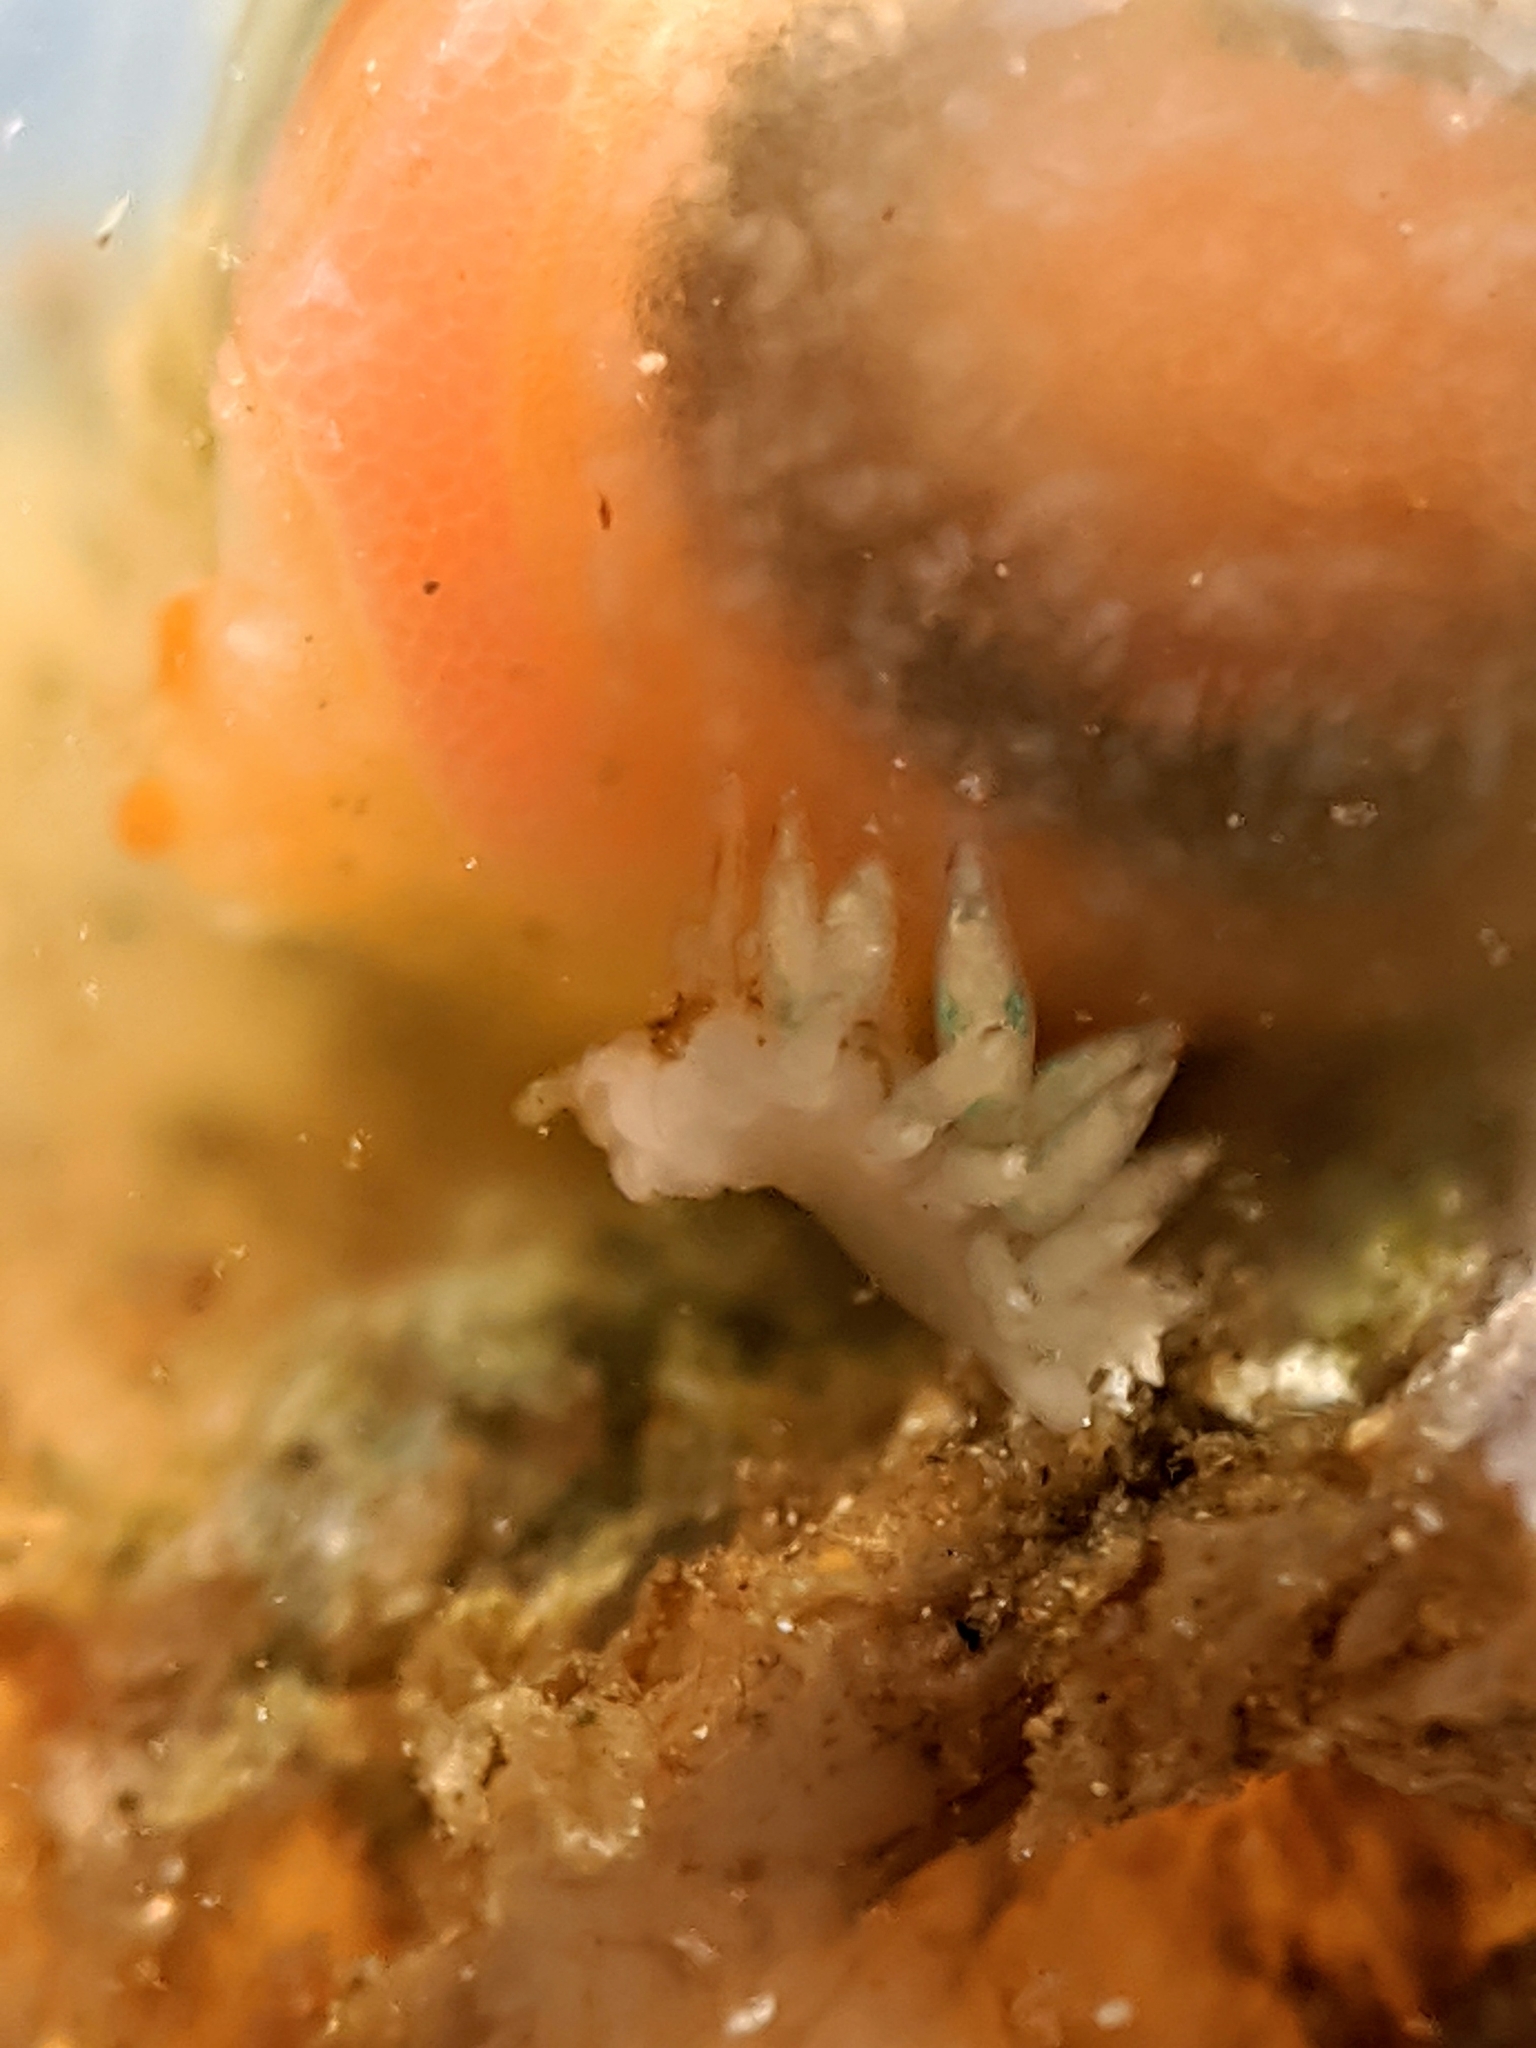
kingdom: Animalia
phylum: Mollusca
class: Gastropoda
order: Nudibranchia
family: Eubranchidae
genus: Eubranchus
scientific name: Eubranchus rustyus
